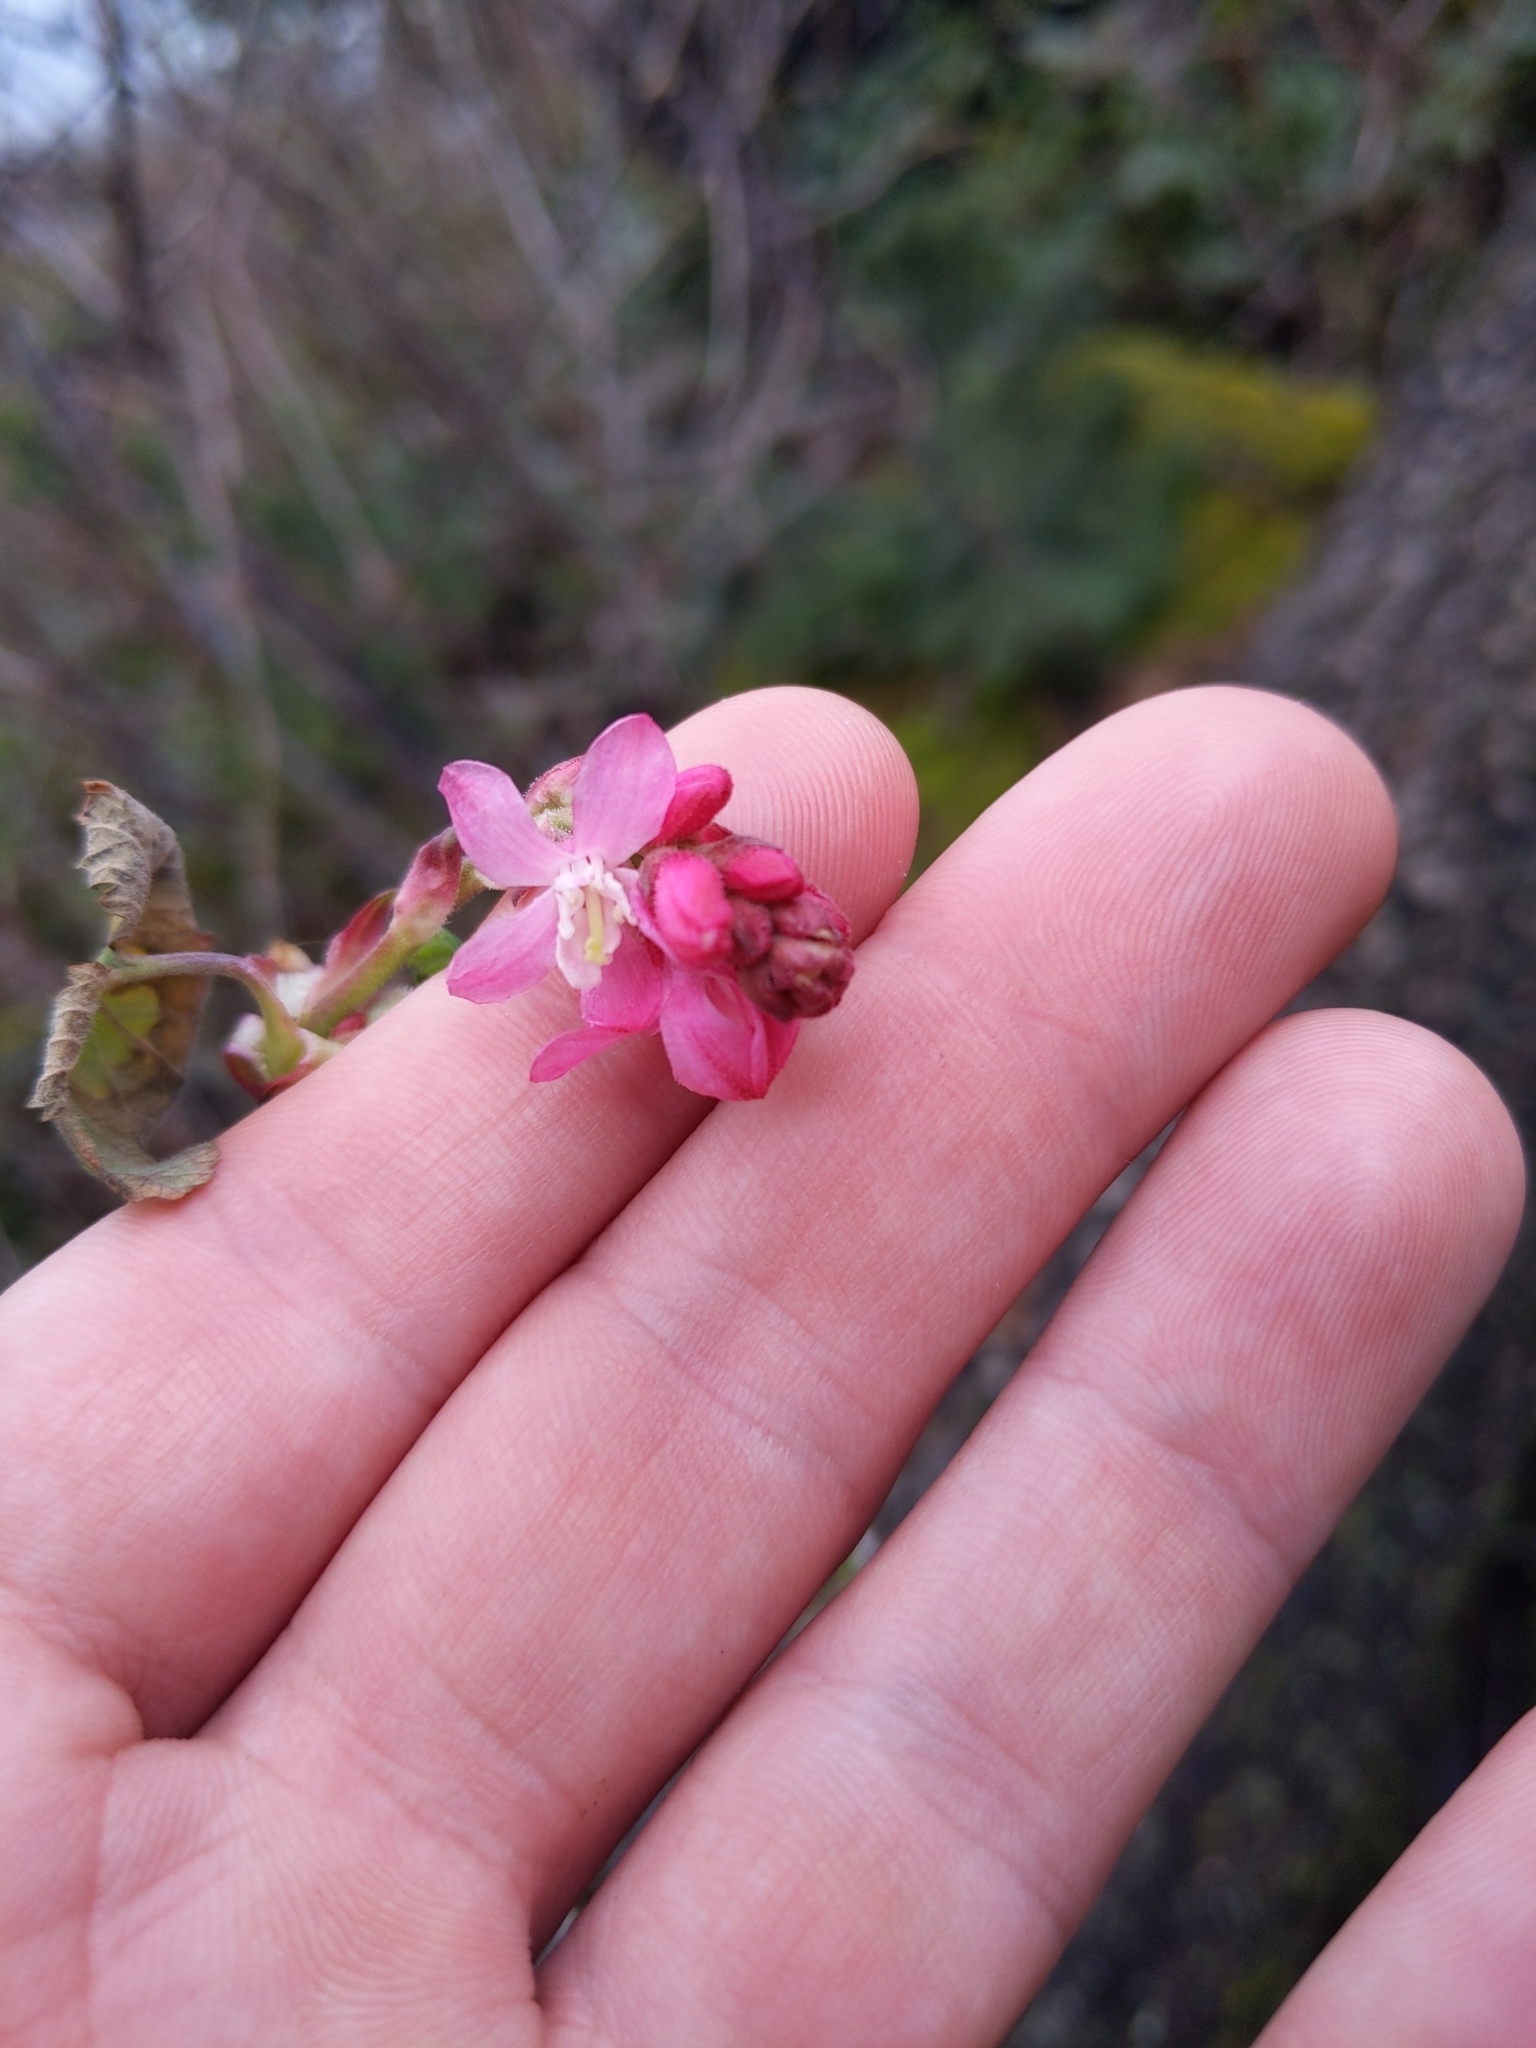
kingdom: Plantae
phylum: Tracheophyta
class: Magnoliopsida
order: Saxifragales
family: Grossulariaceae
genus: Ribes
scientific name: Ribes sanguineum
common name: Flowering currant
